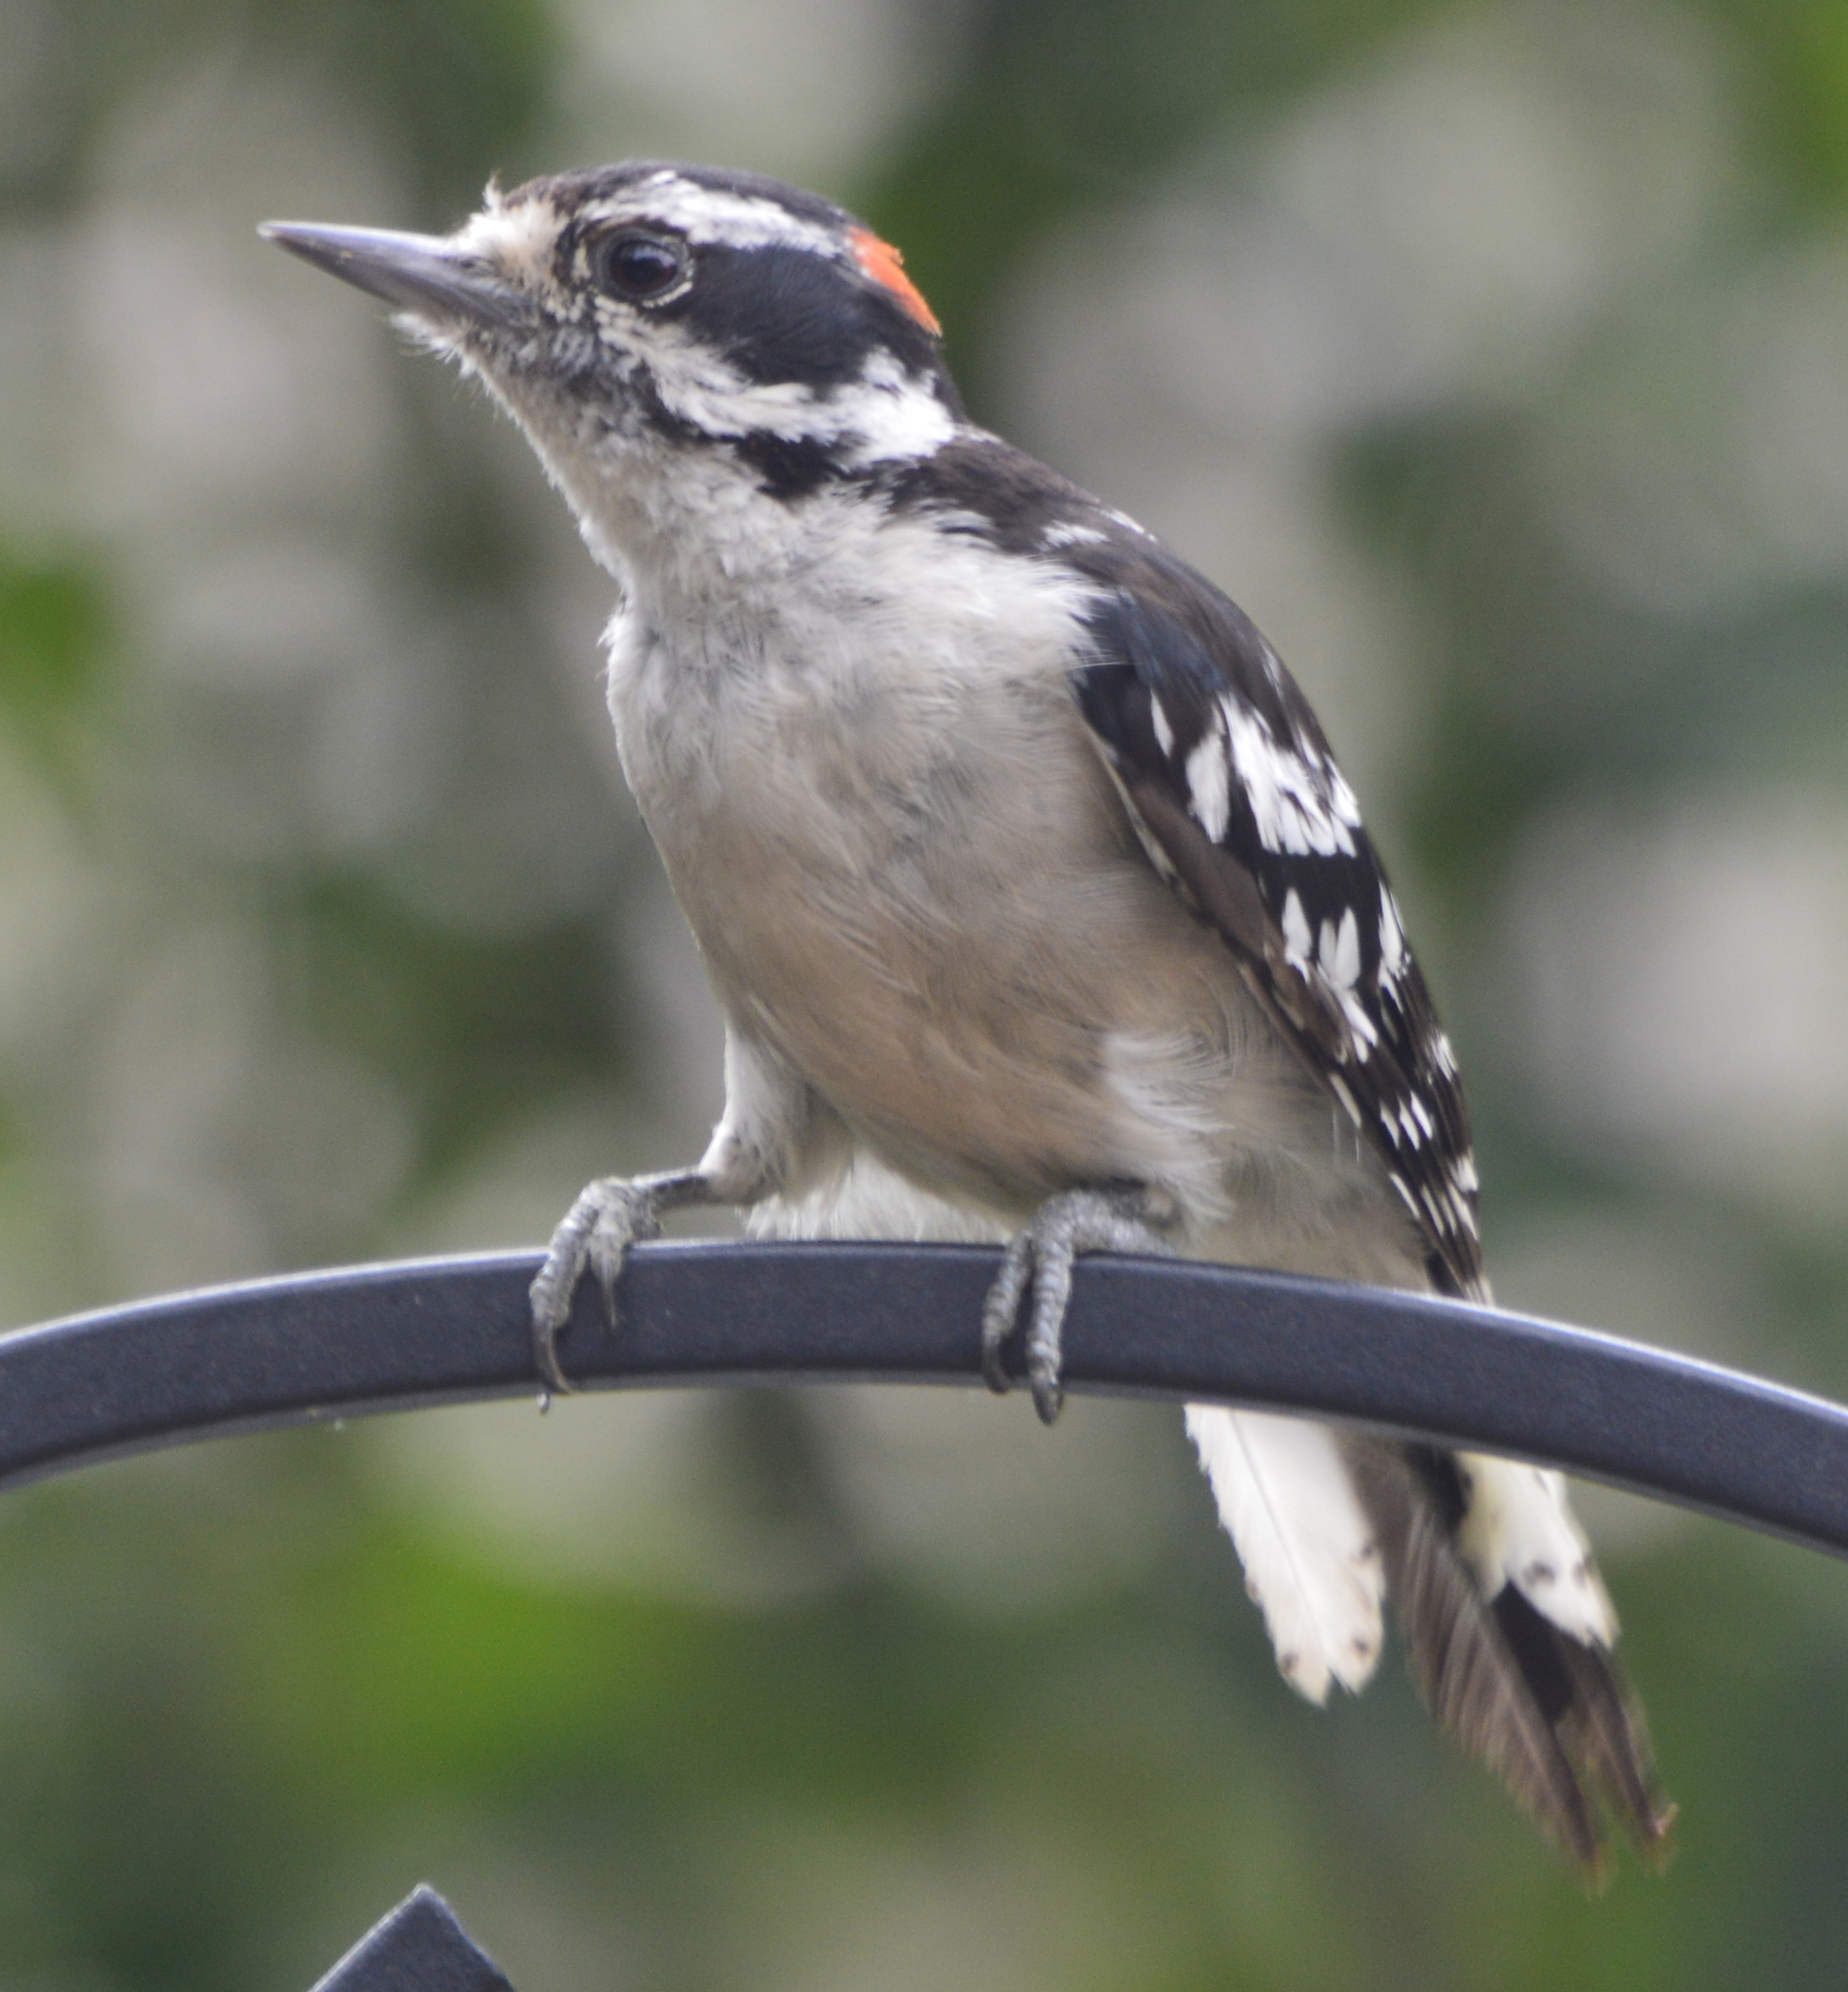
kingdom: Animalia
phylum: Chordata
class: Aves
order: Piciformes
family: Picidae
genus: Dryobates
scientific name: Dryobates pubescens
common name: Downy woodpecker
